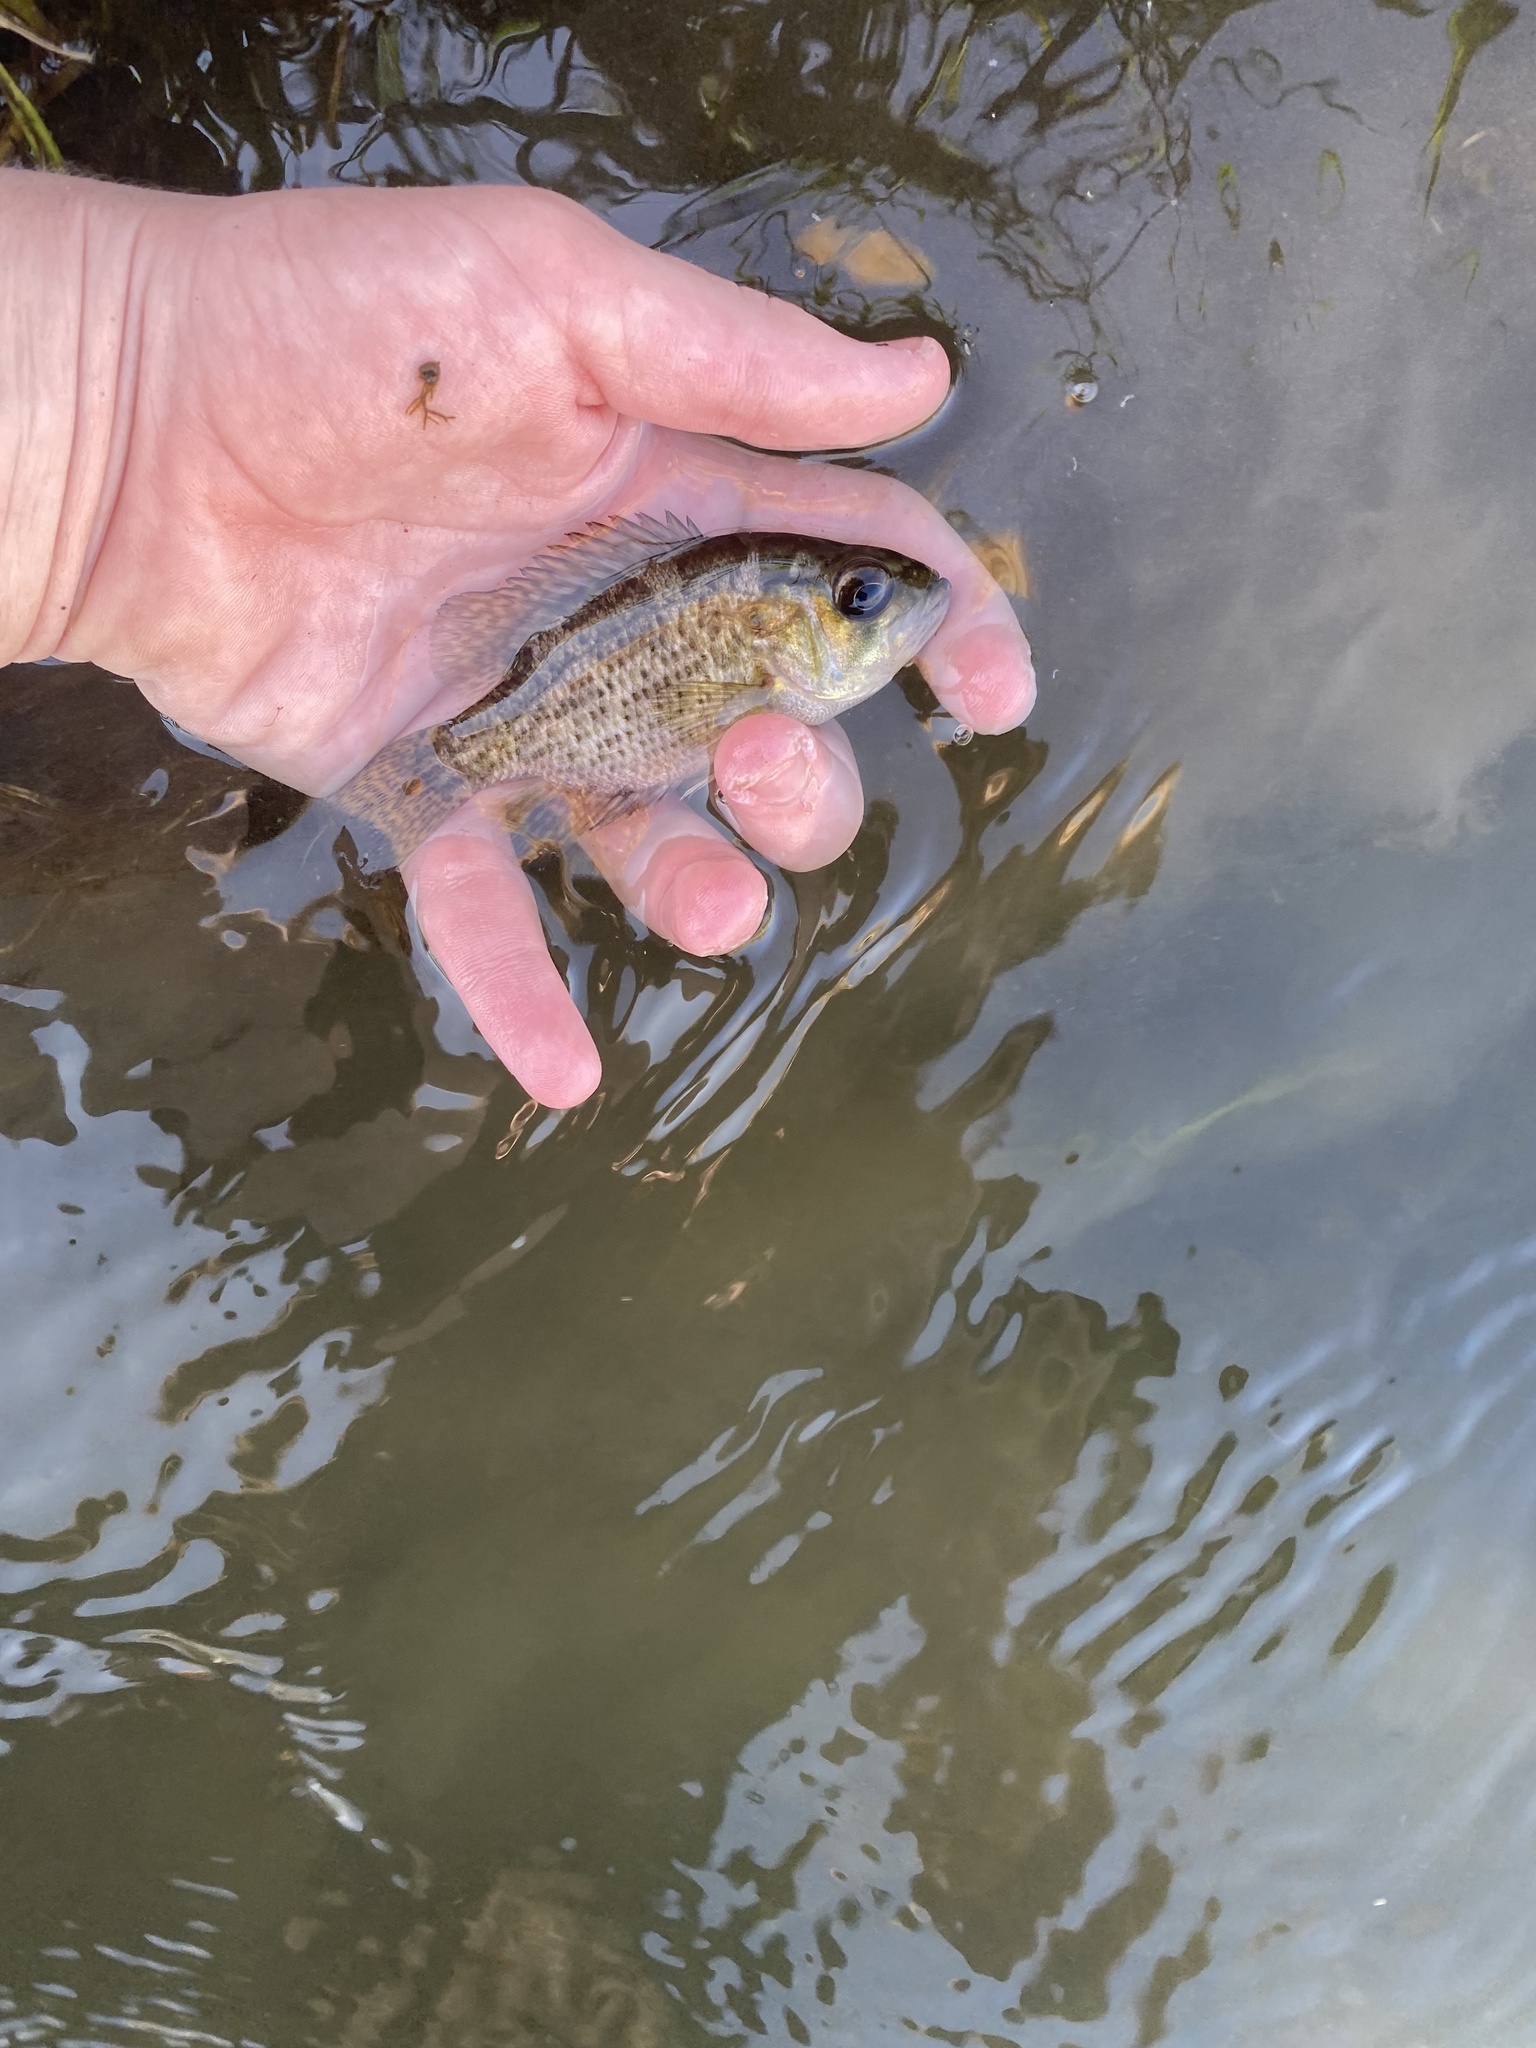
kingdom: Animalia
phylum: Chordata
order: Perciformes
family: Centrarchidae
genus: Ambloplites
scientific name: Ambloplites rupestris
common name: Rock bass
